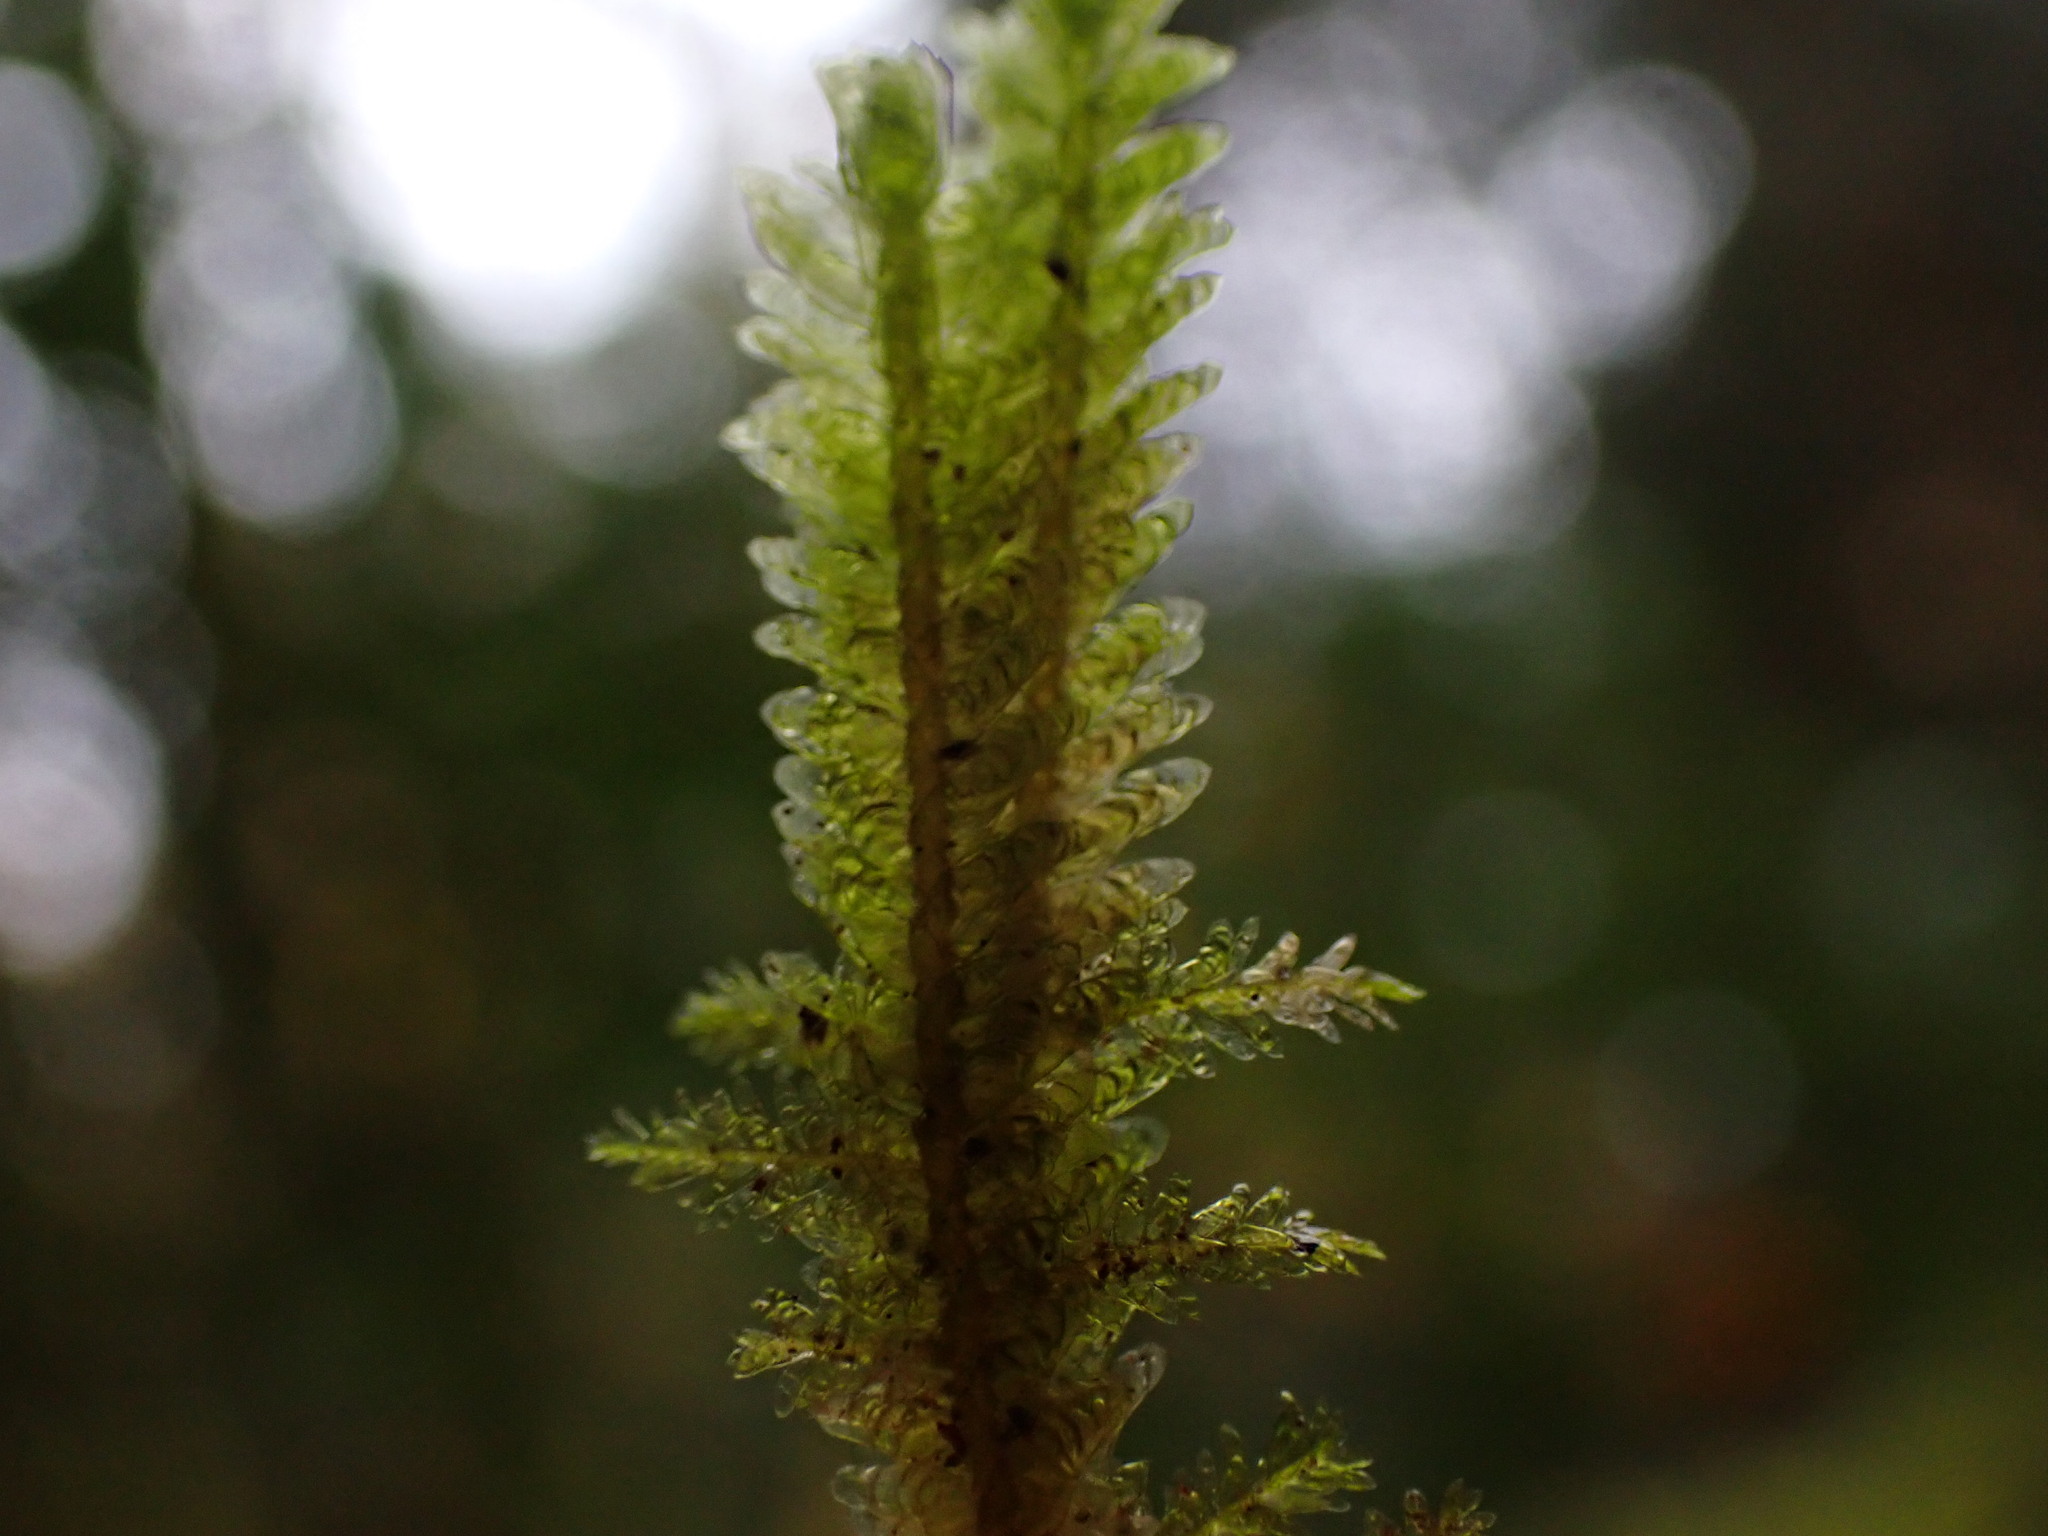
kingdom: Plantae
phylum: Bryophyta
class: Bryopsida
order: Hypnales
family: Neckeraceae
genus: Metaneckera
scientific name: Metaneckera menziesii
